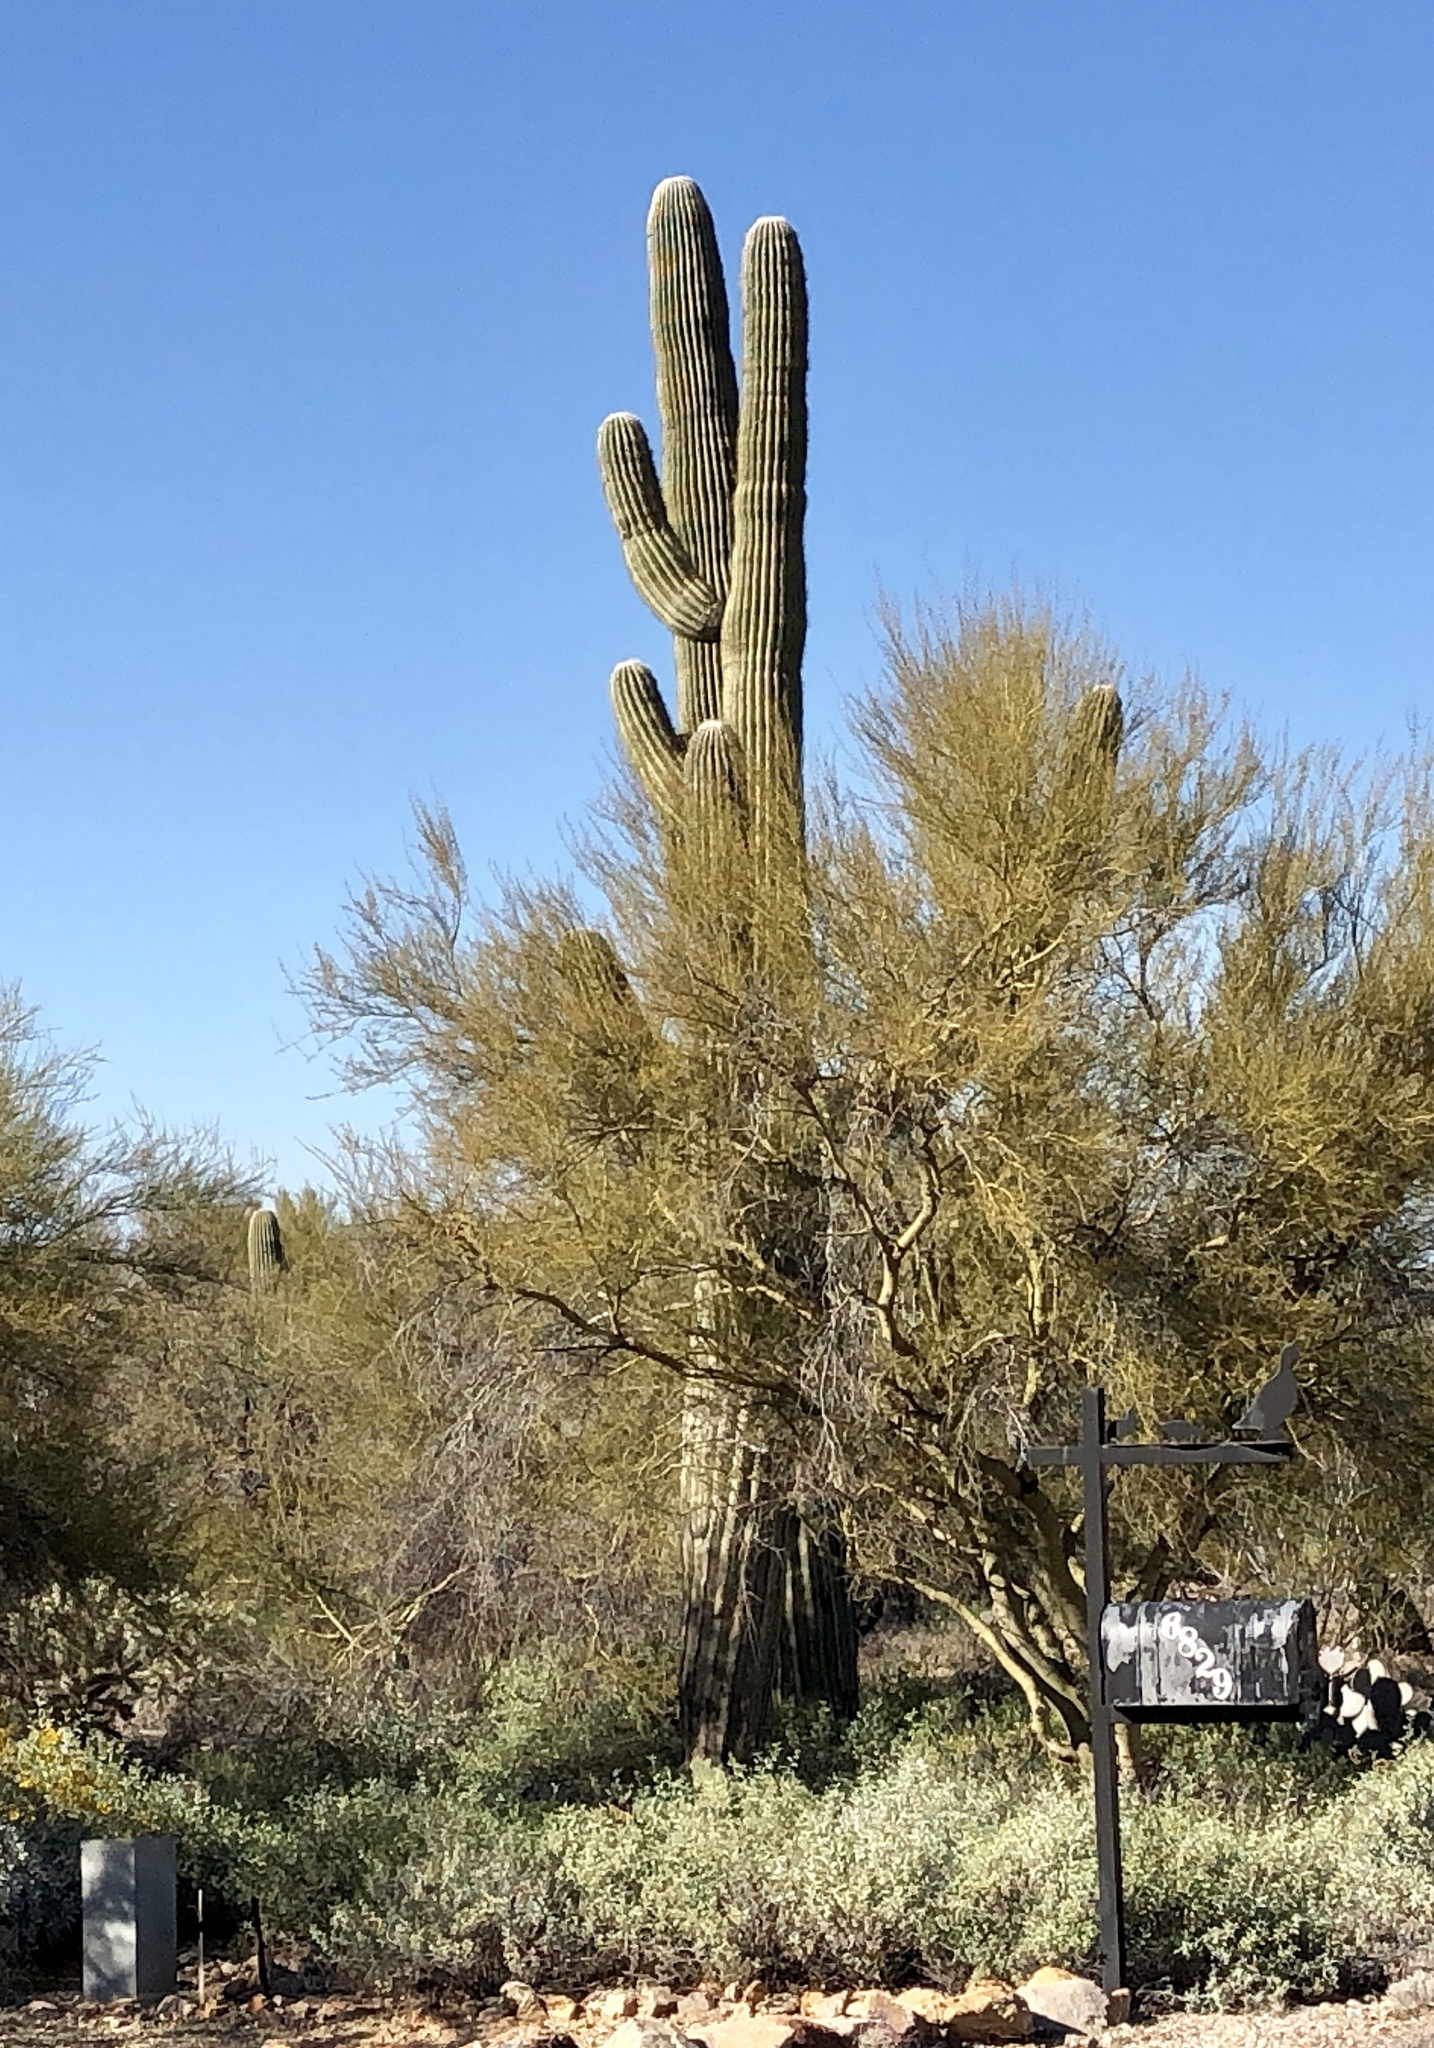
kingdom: Plantae
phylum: Tracheophyta
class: Magnoliopsida
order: Caryophyllales
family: Cactaceae
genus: Carnegiea
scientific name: Carnegiea gigantea
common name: Saguaro
